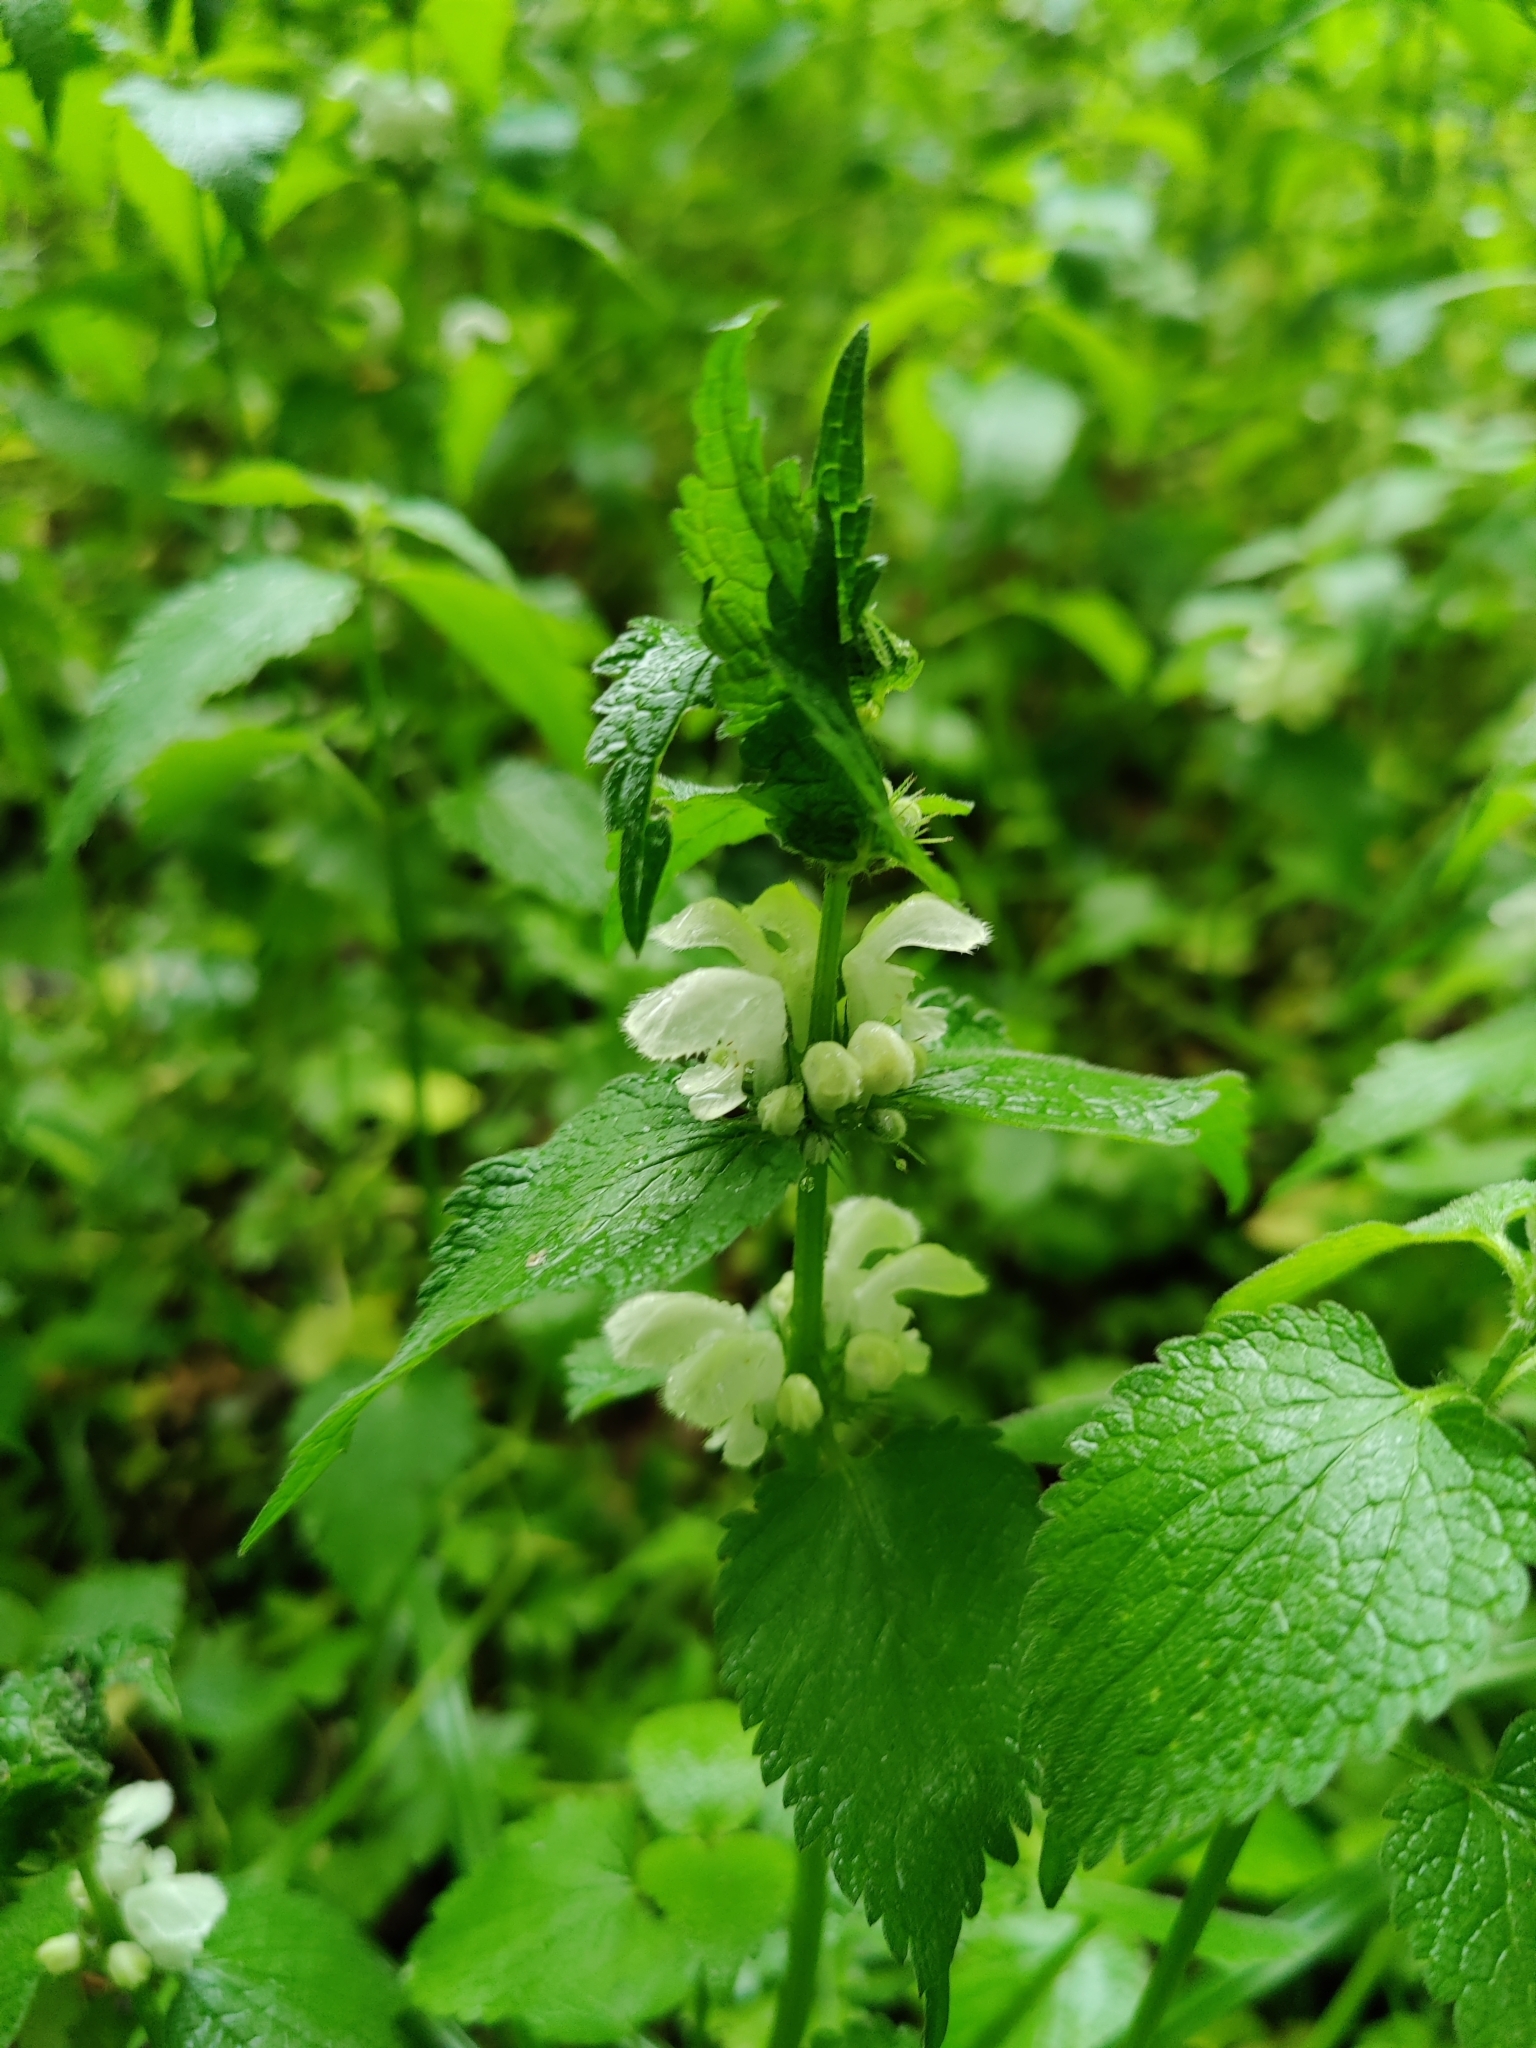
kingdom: Plantae
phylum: Tracheophyta
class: Magnoliopsida
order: Lamiales
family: Lamiaceae
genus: Lamium
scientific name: Lamium album
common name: White dead-nettle
